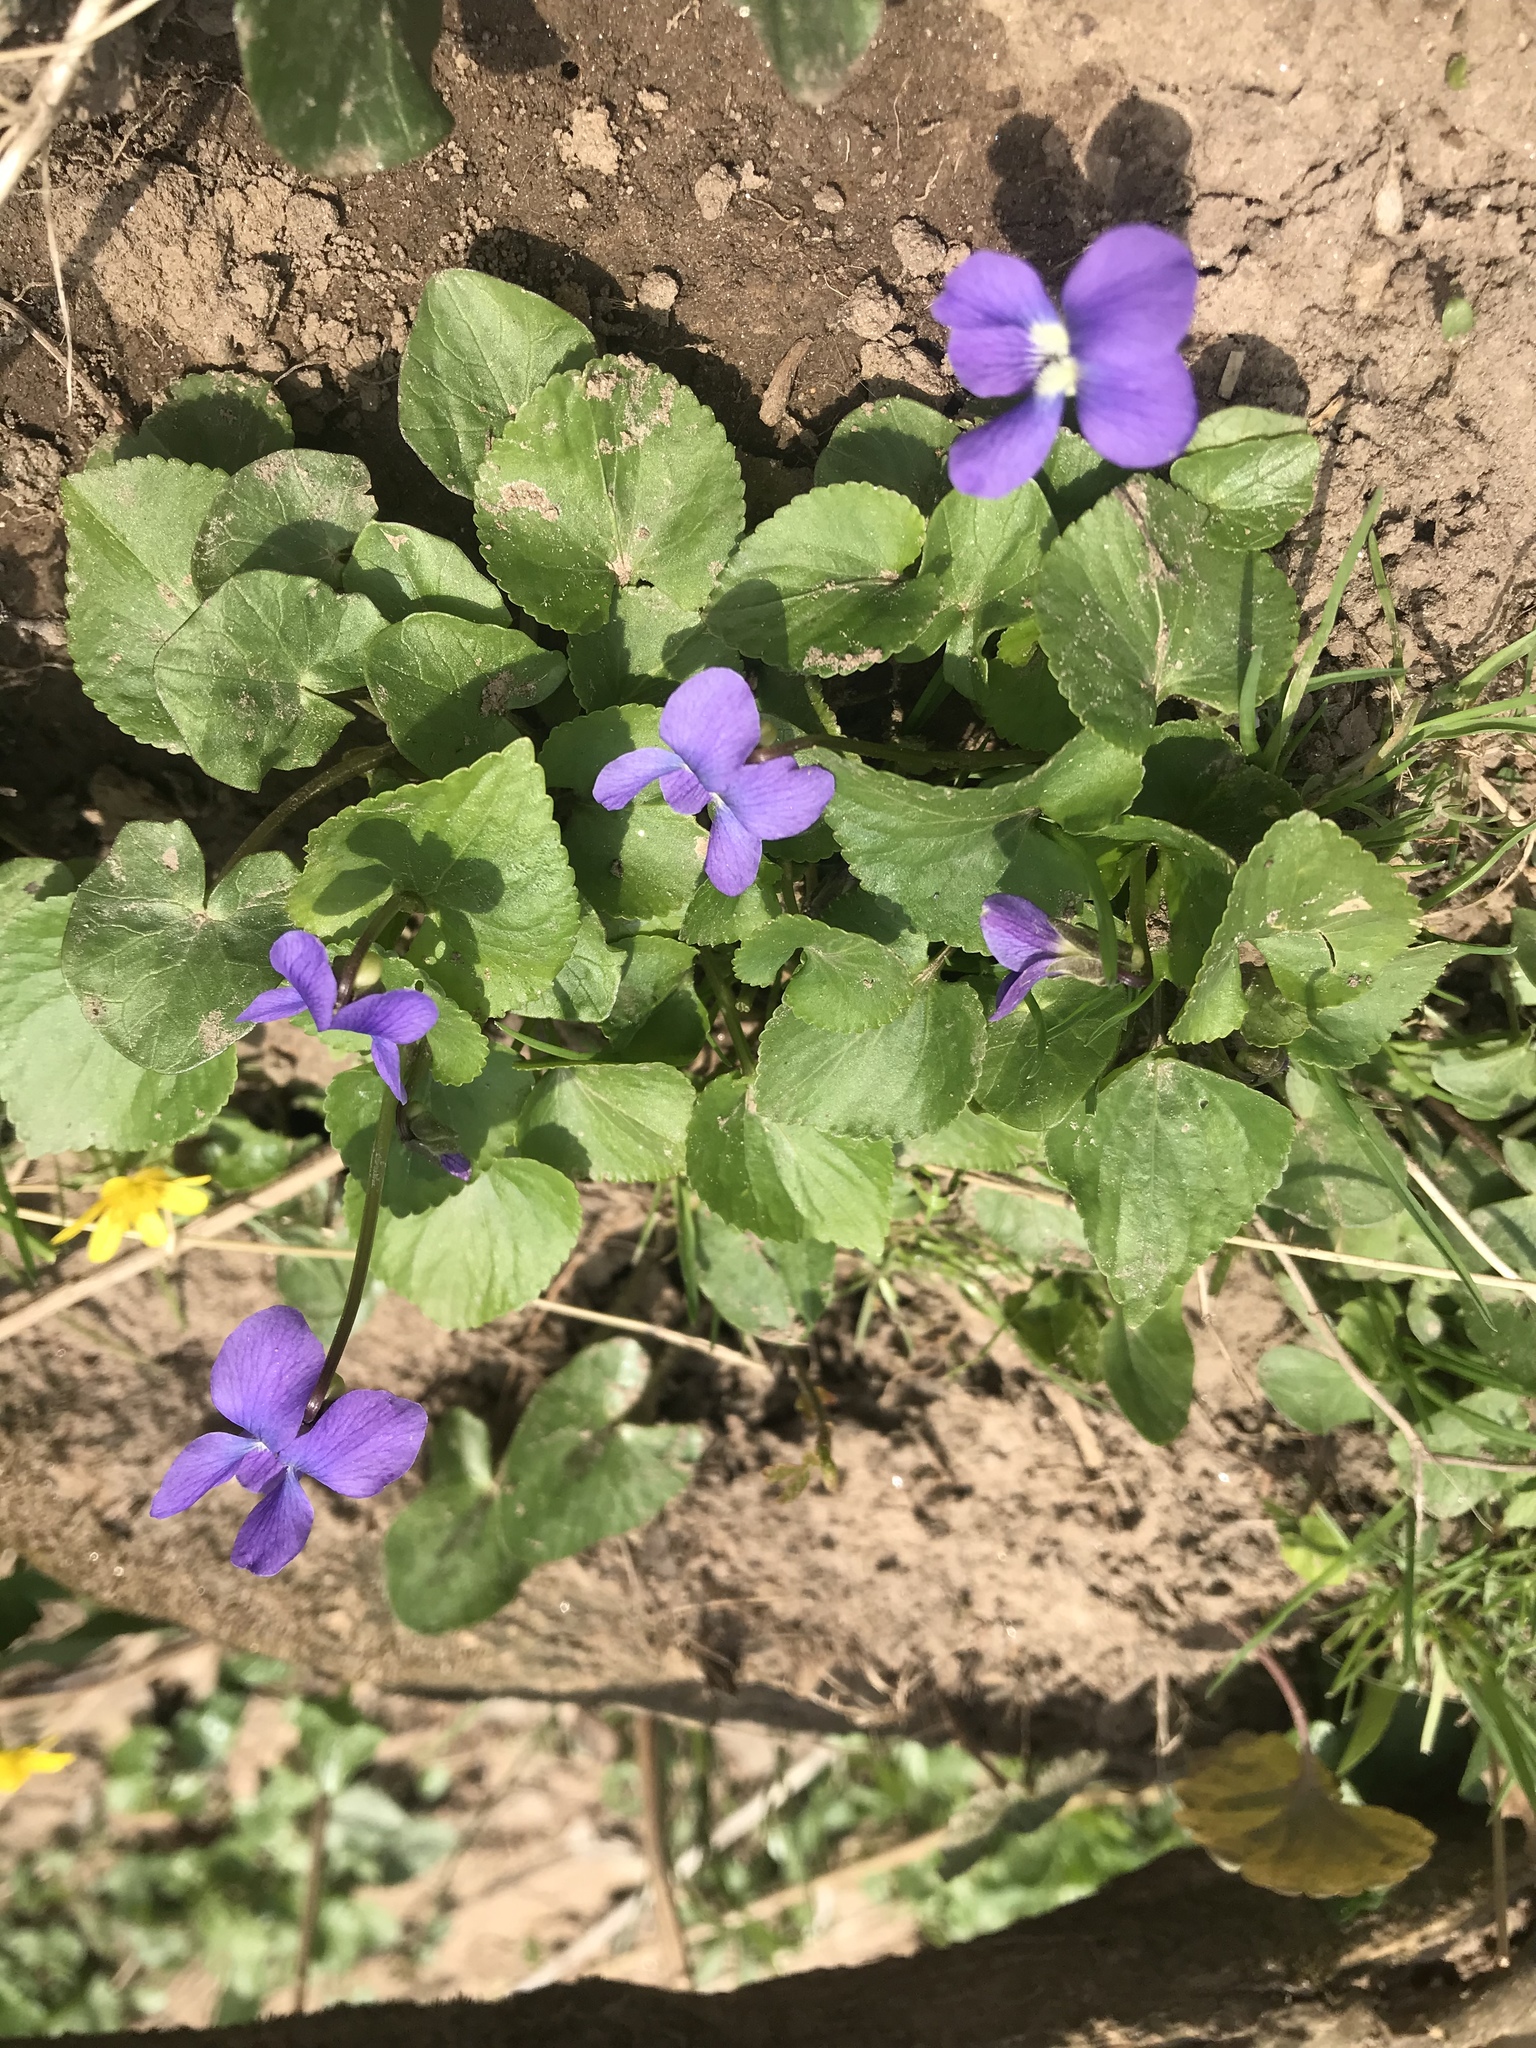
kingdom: Plantae
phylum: Tracheophyta
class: Magnoliopsida
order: Malpighiales
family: Violaceae
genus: Viola
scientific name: Viola sororia
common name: Dooryard violet
